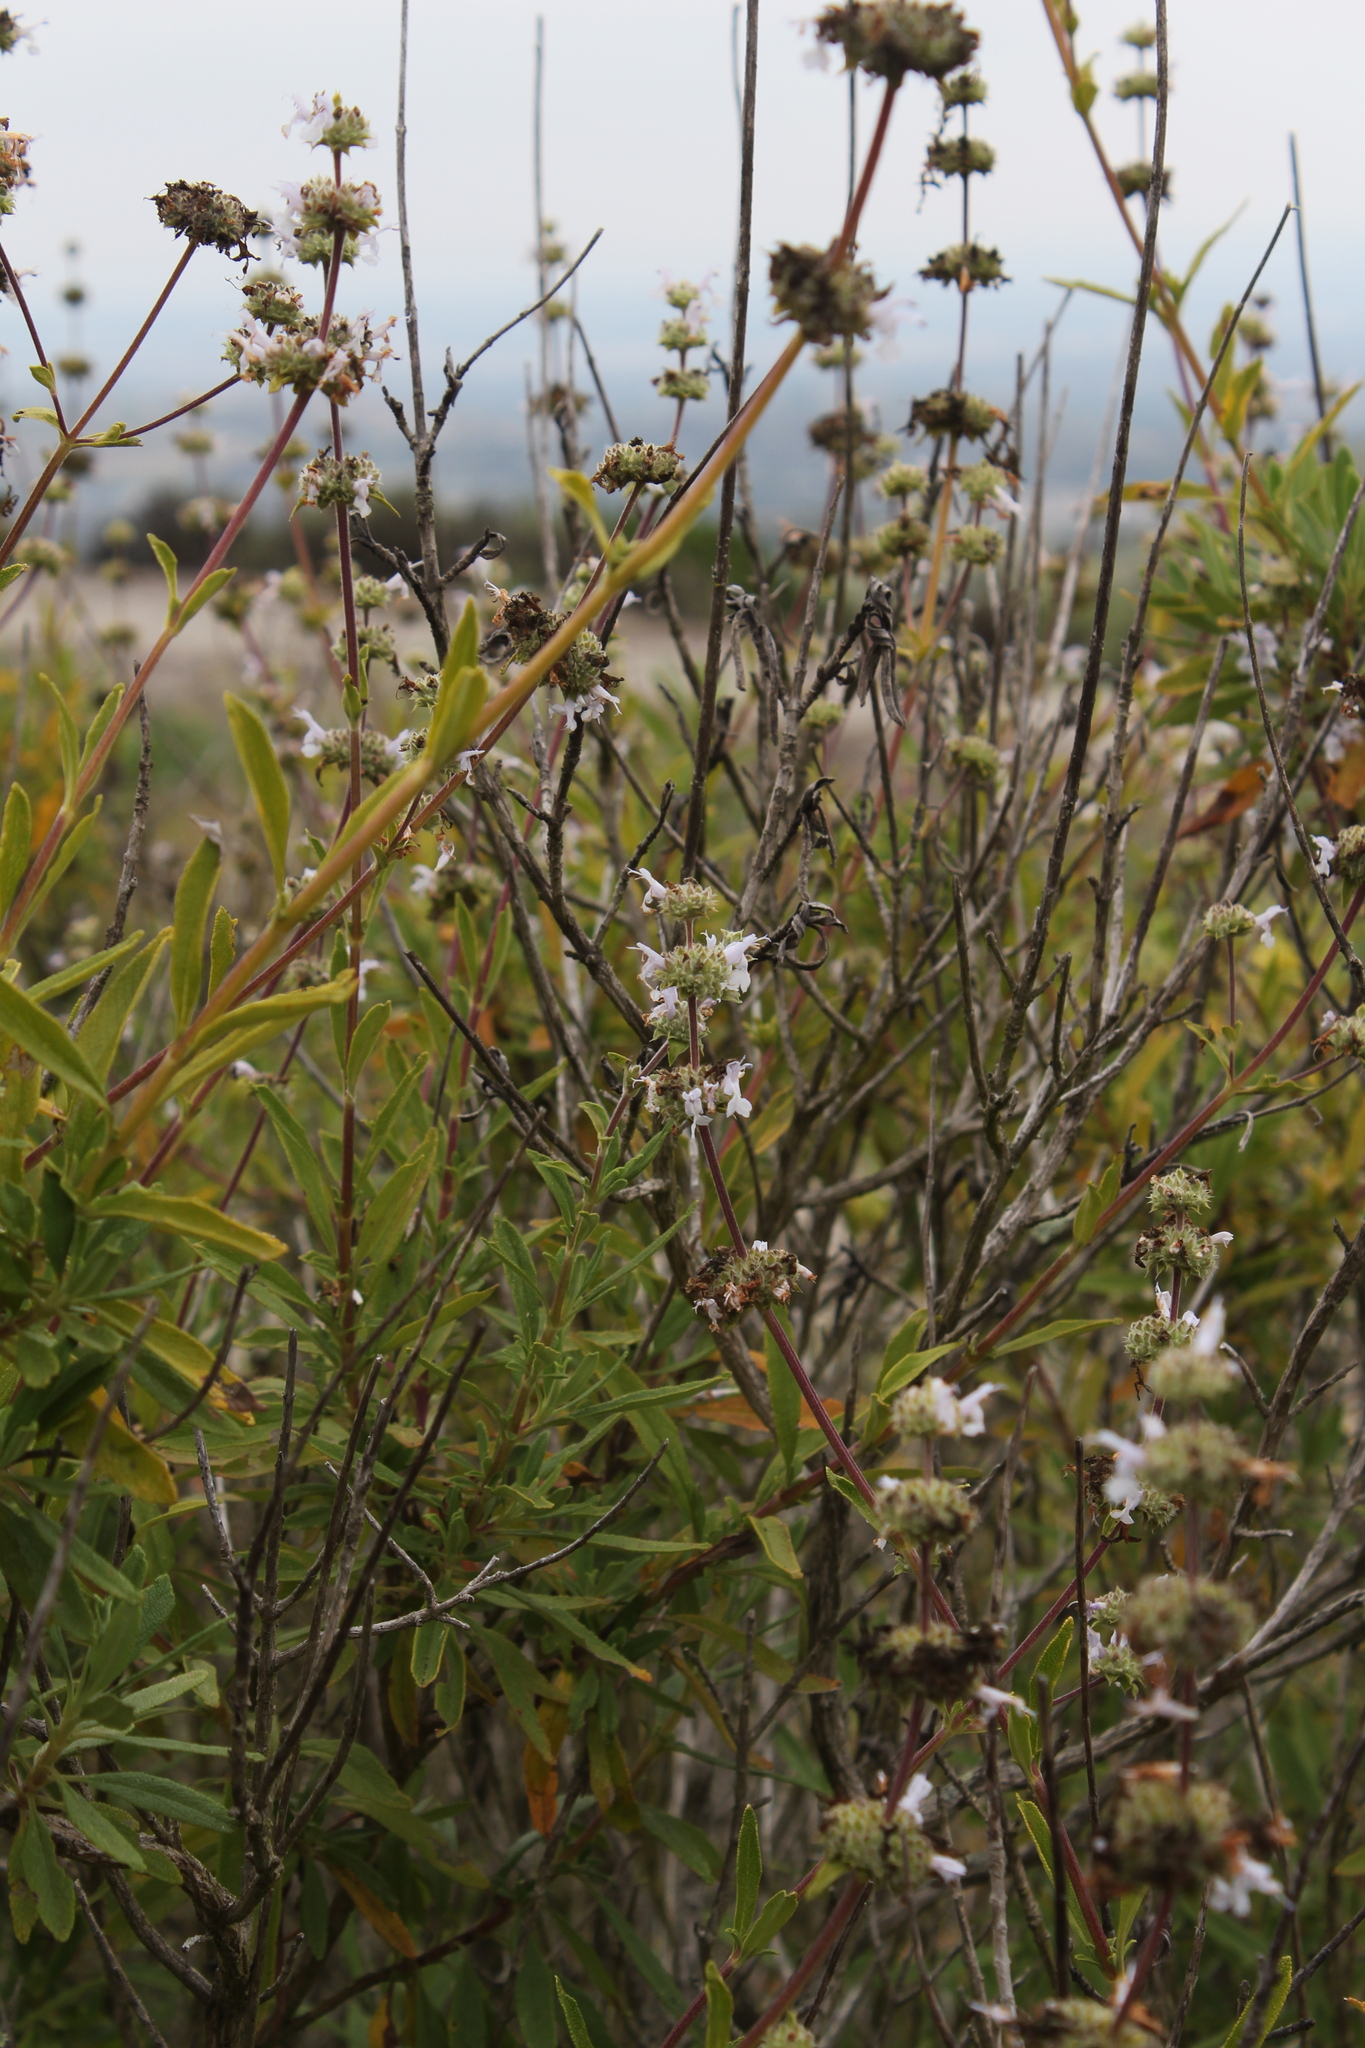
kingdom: Plantae
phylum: Tracheophyta
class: Magnoliopsida
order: Lamiales
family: Lamiaceae
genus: Salvia
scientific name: Salvia mellifera
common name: Black sage
